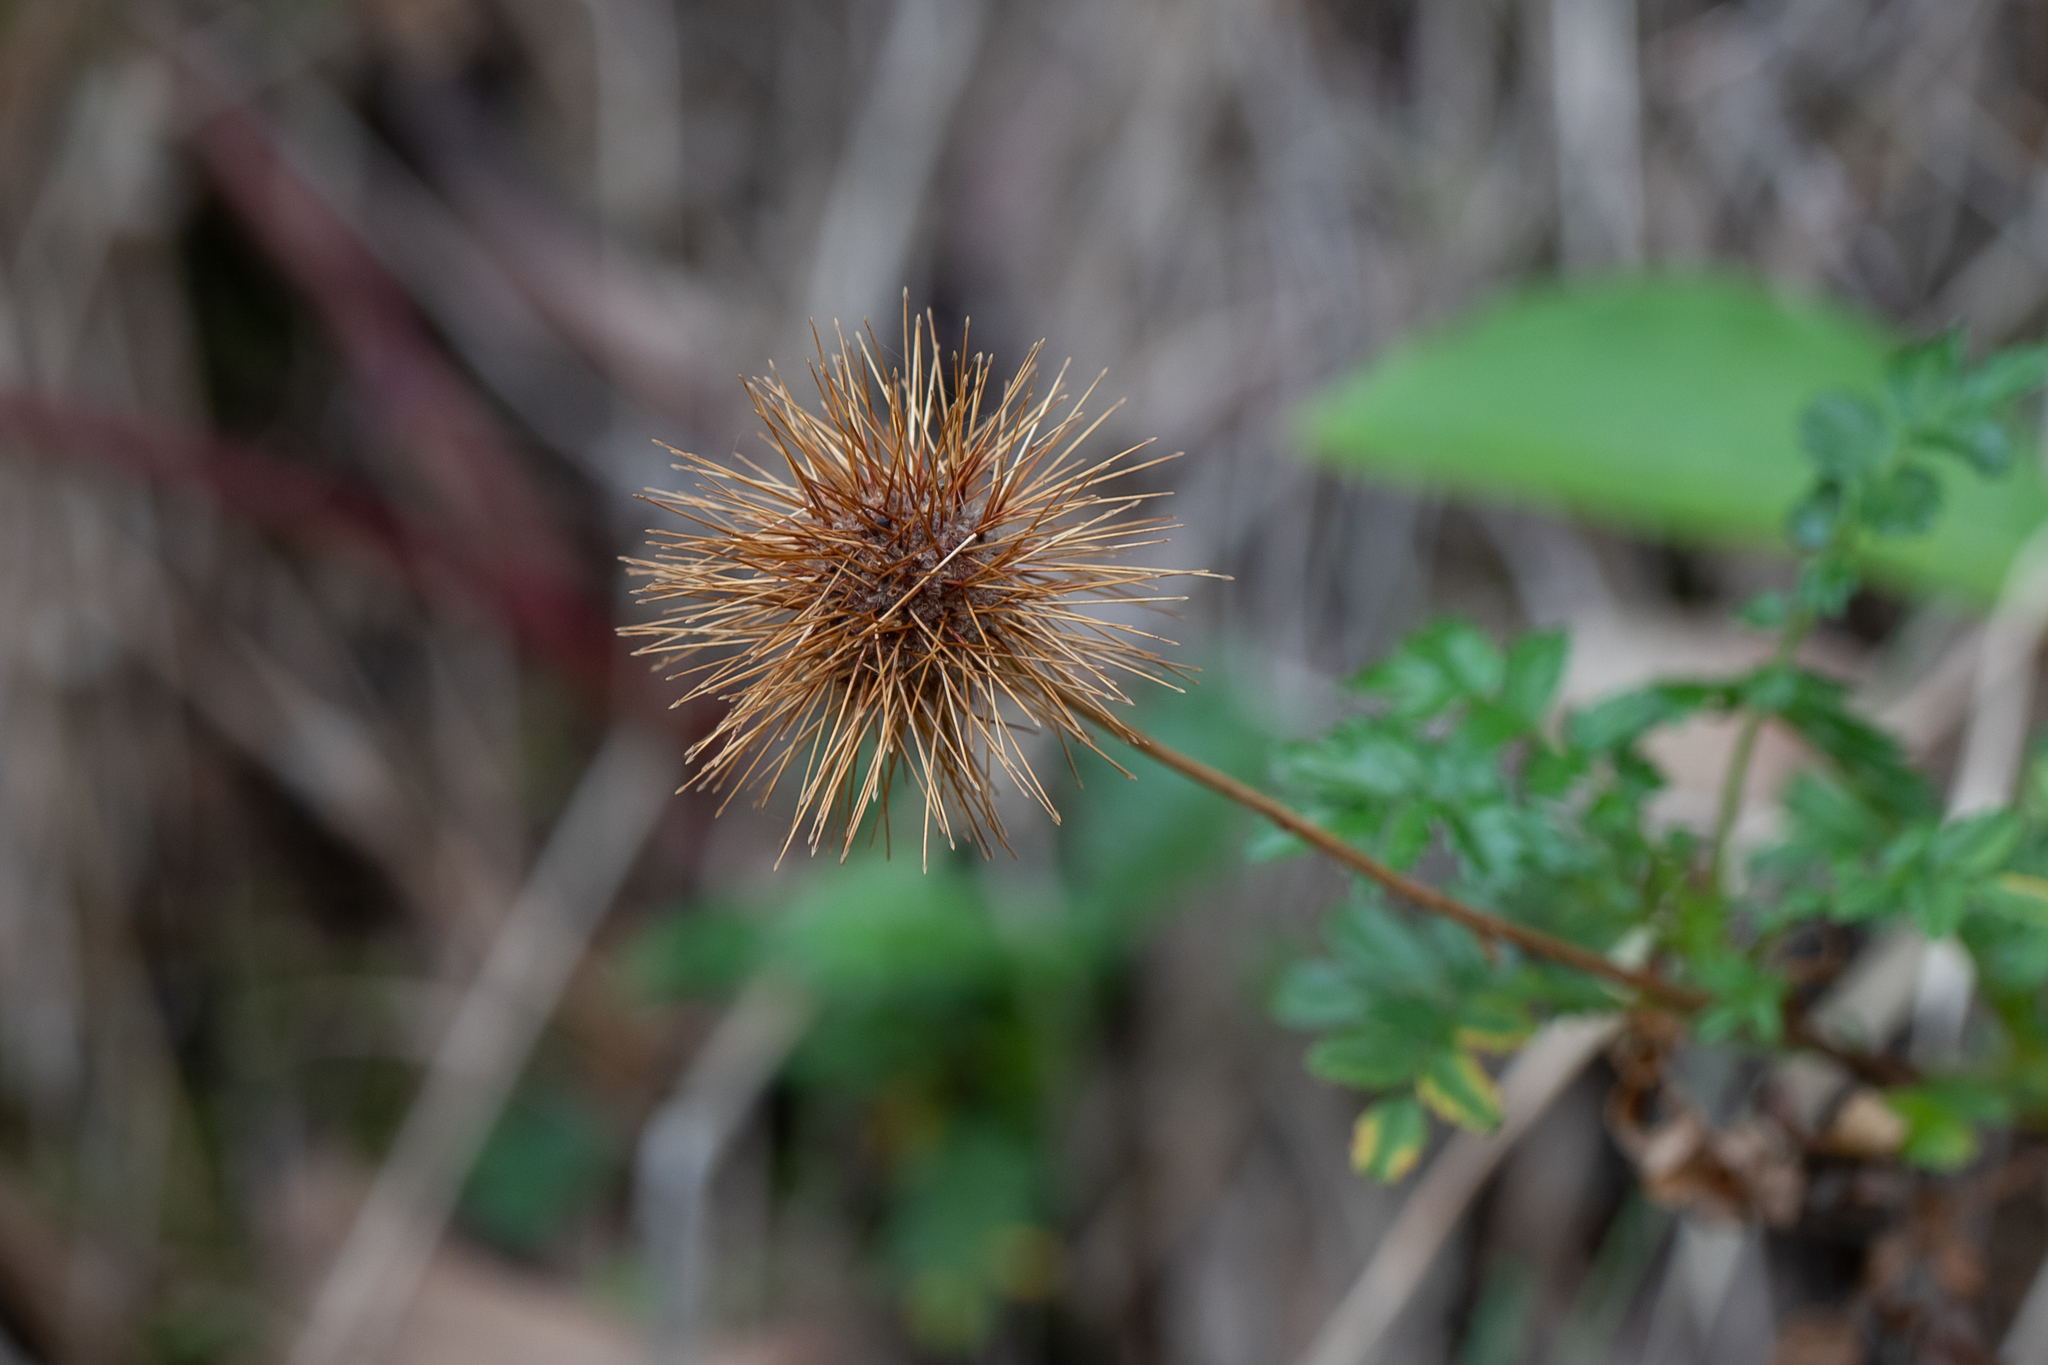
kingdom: Plantae
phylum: Tracheophyta
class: Magnoliopsida
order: Rosales
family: Rosaceae
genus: Acaena
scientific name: Acaena novae-zelandiae
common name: Pirri-pirri-bur
